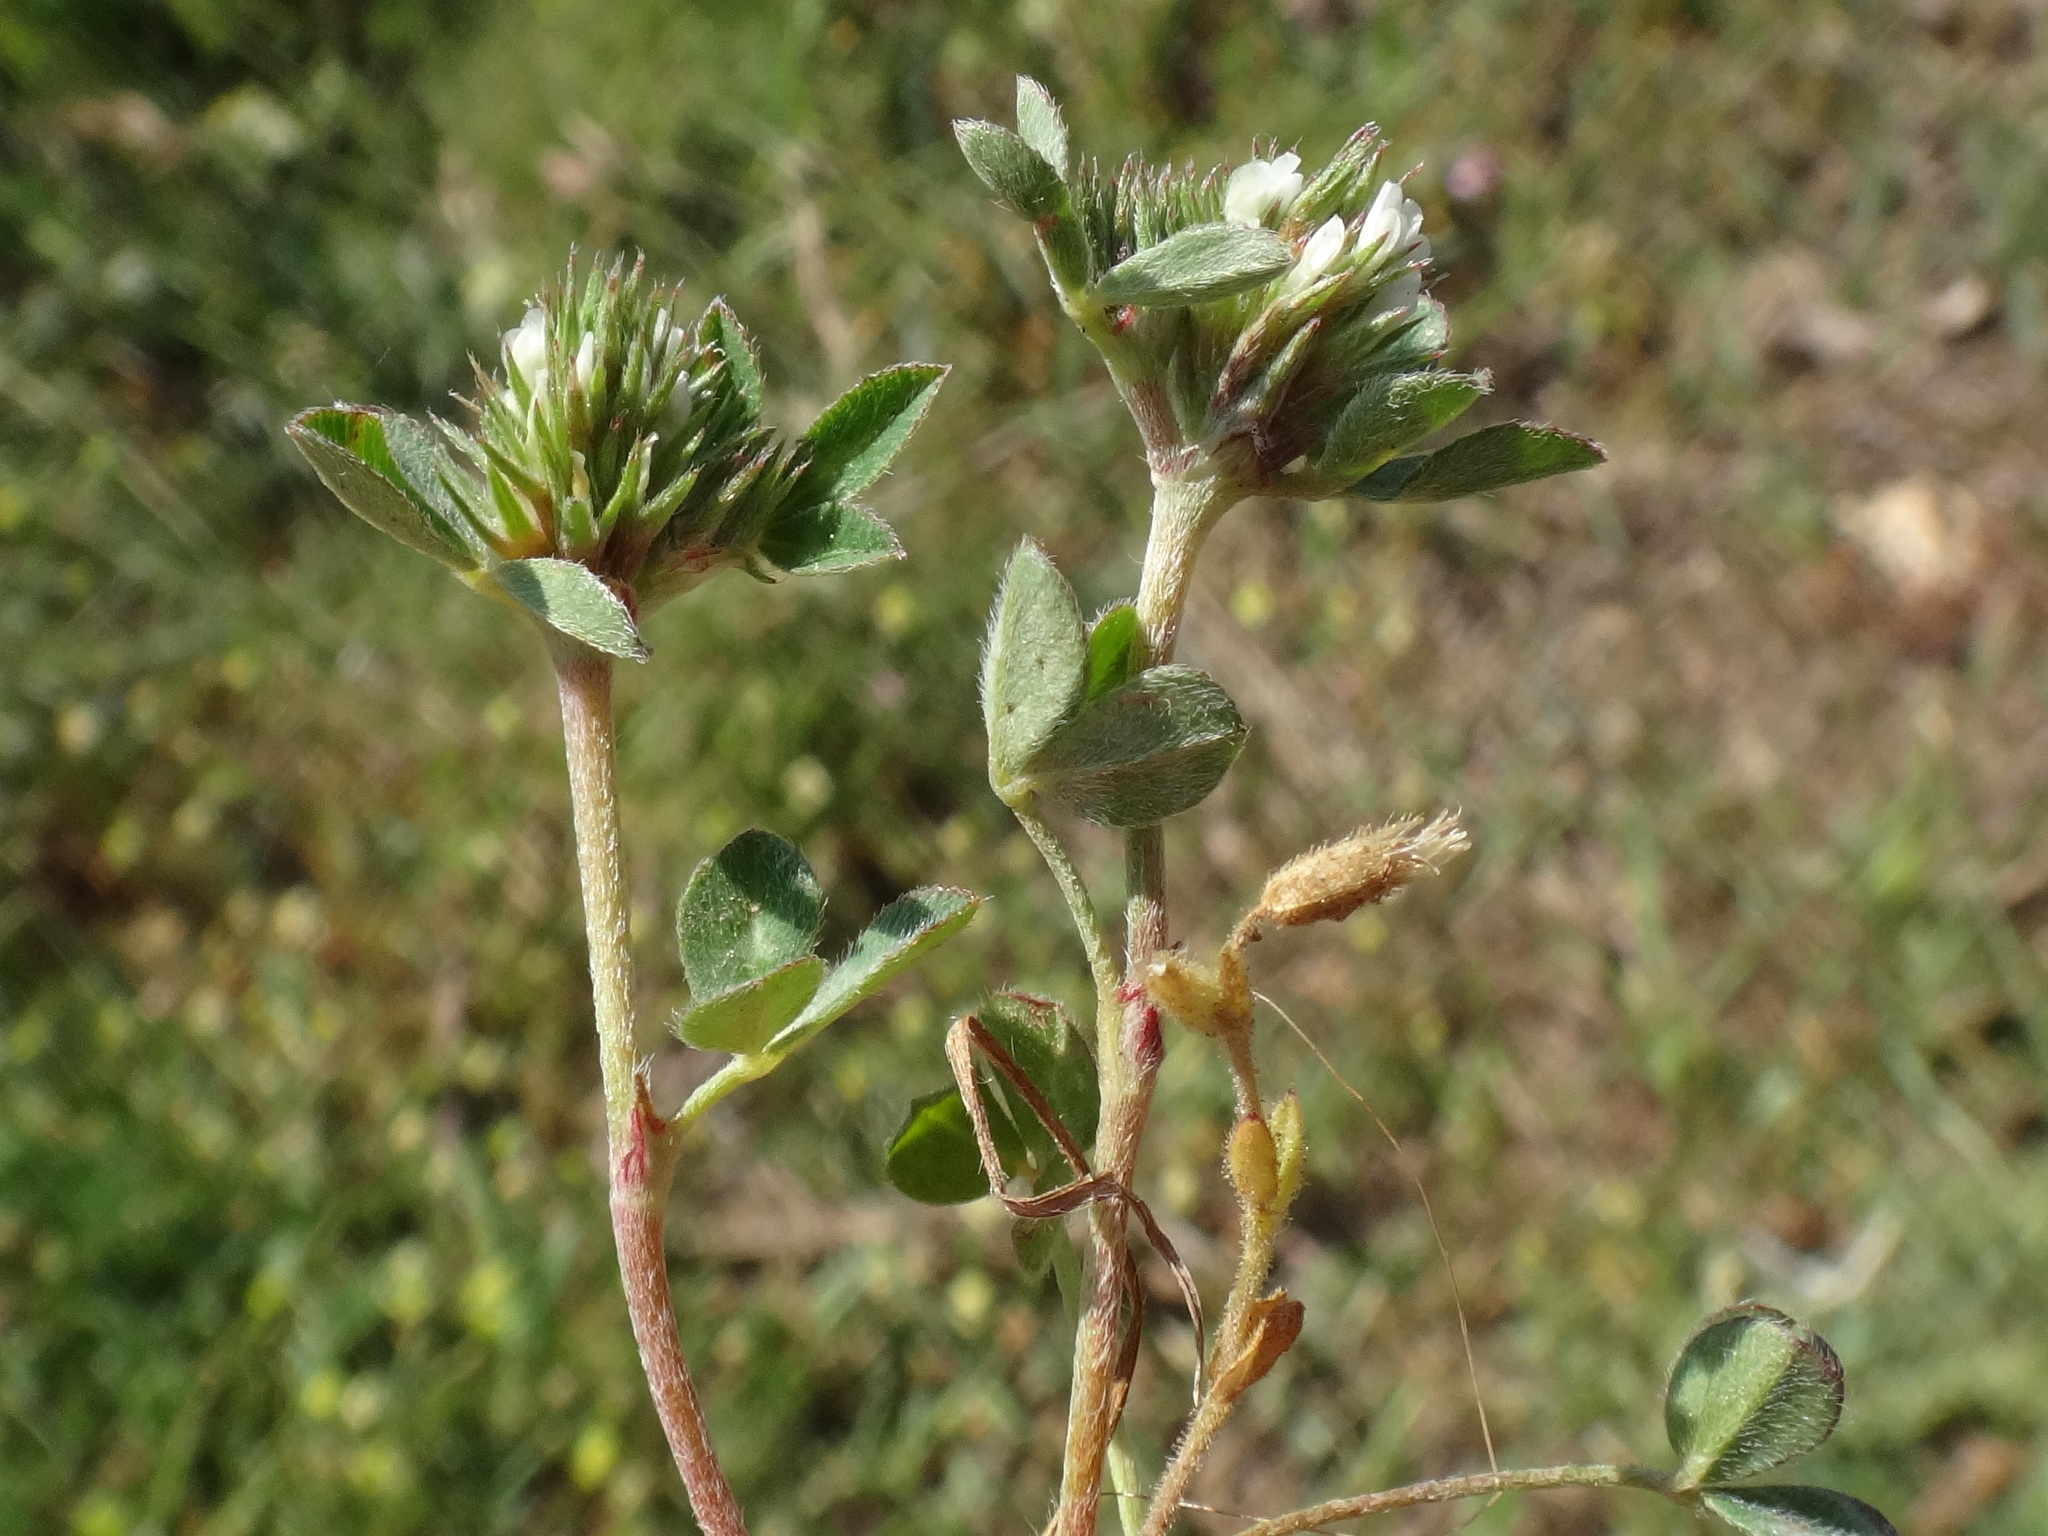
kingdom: Plantae
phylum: Tracheophyta
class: Magnoliopsida
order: Fabales
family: Fabaceae
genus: Trifolium
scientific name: Trifolium scabrum
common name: Rough clover
